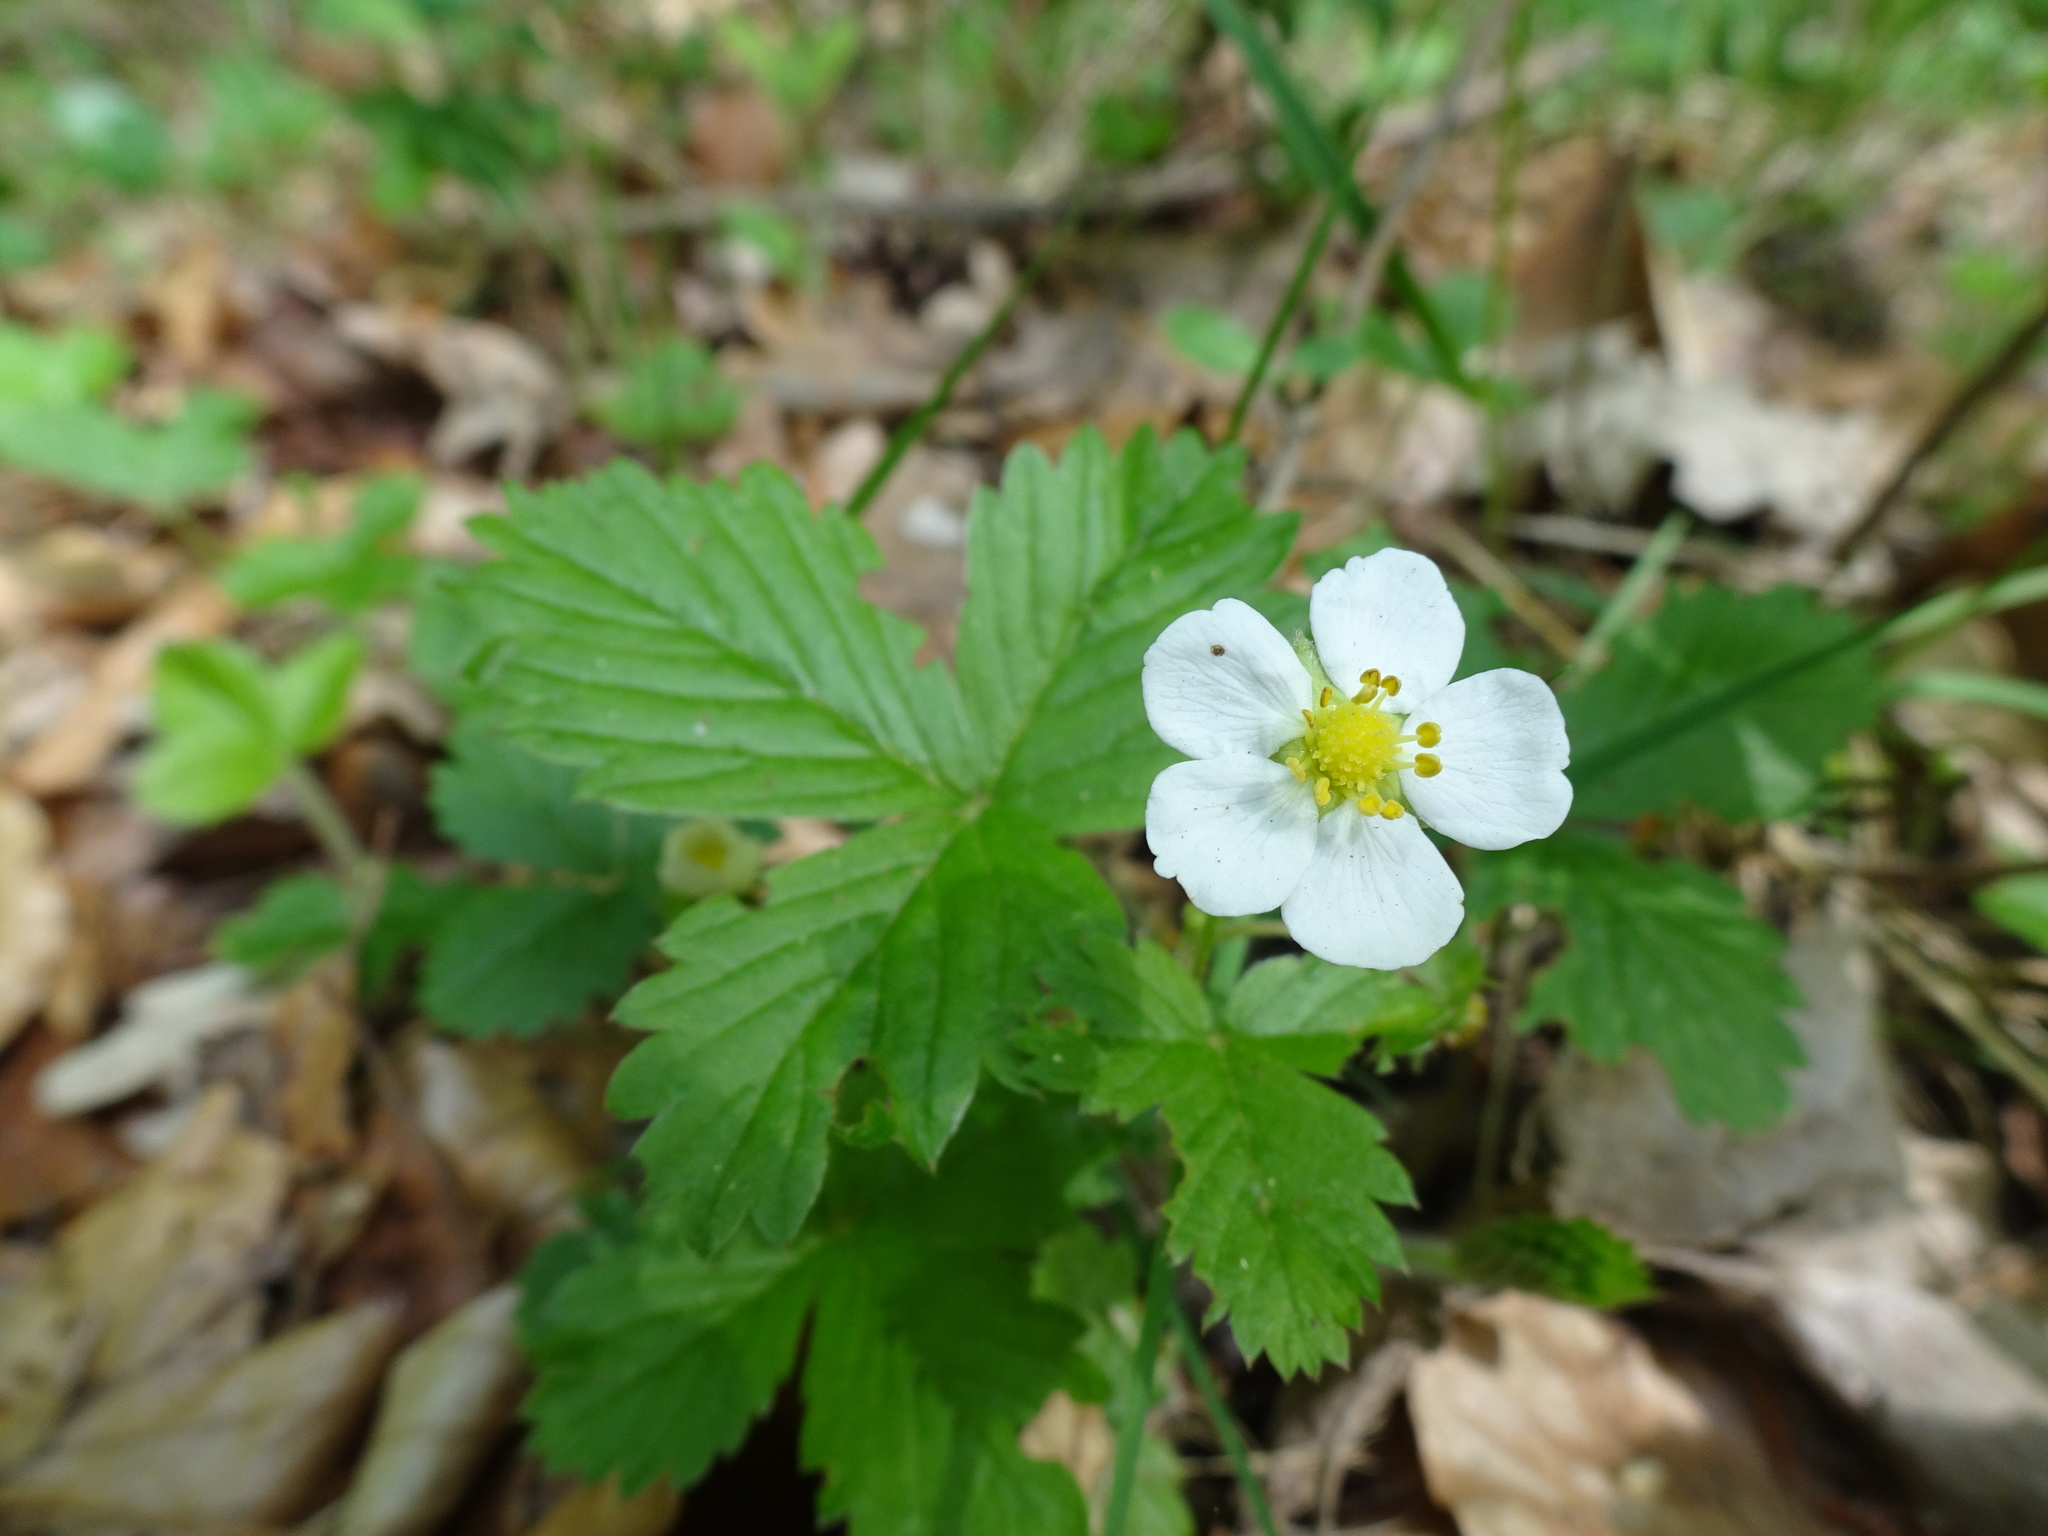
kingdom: Plantae
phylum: Tracheophyta
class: Magnoliopsida
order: Rosales
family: Rosaceae
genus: Fragaria
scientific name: Fragaria vesca
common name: Wild strawberry
